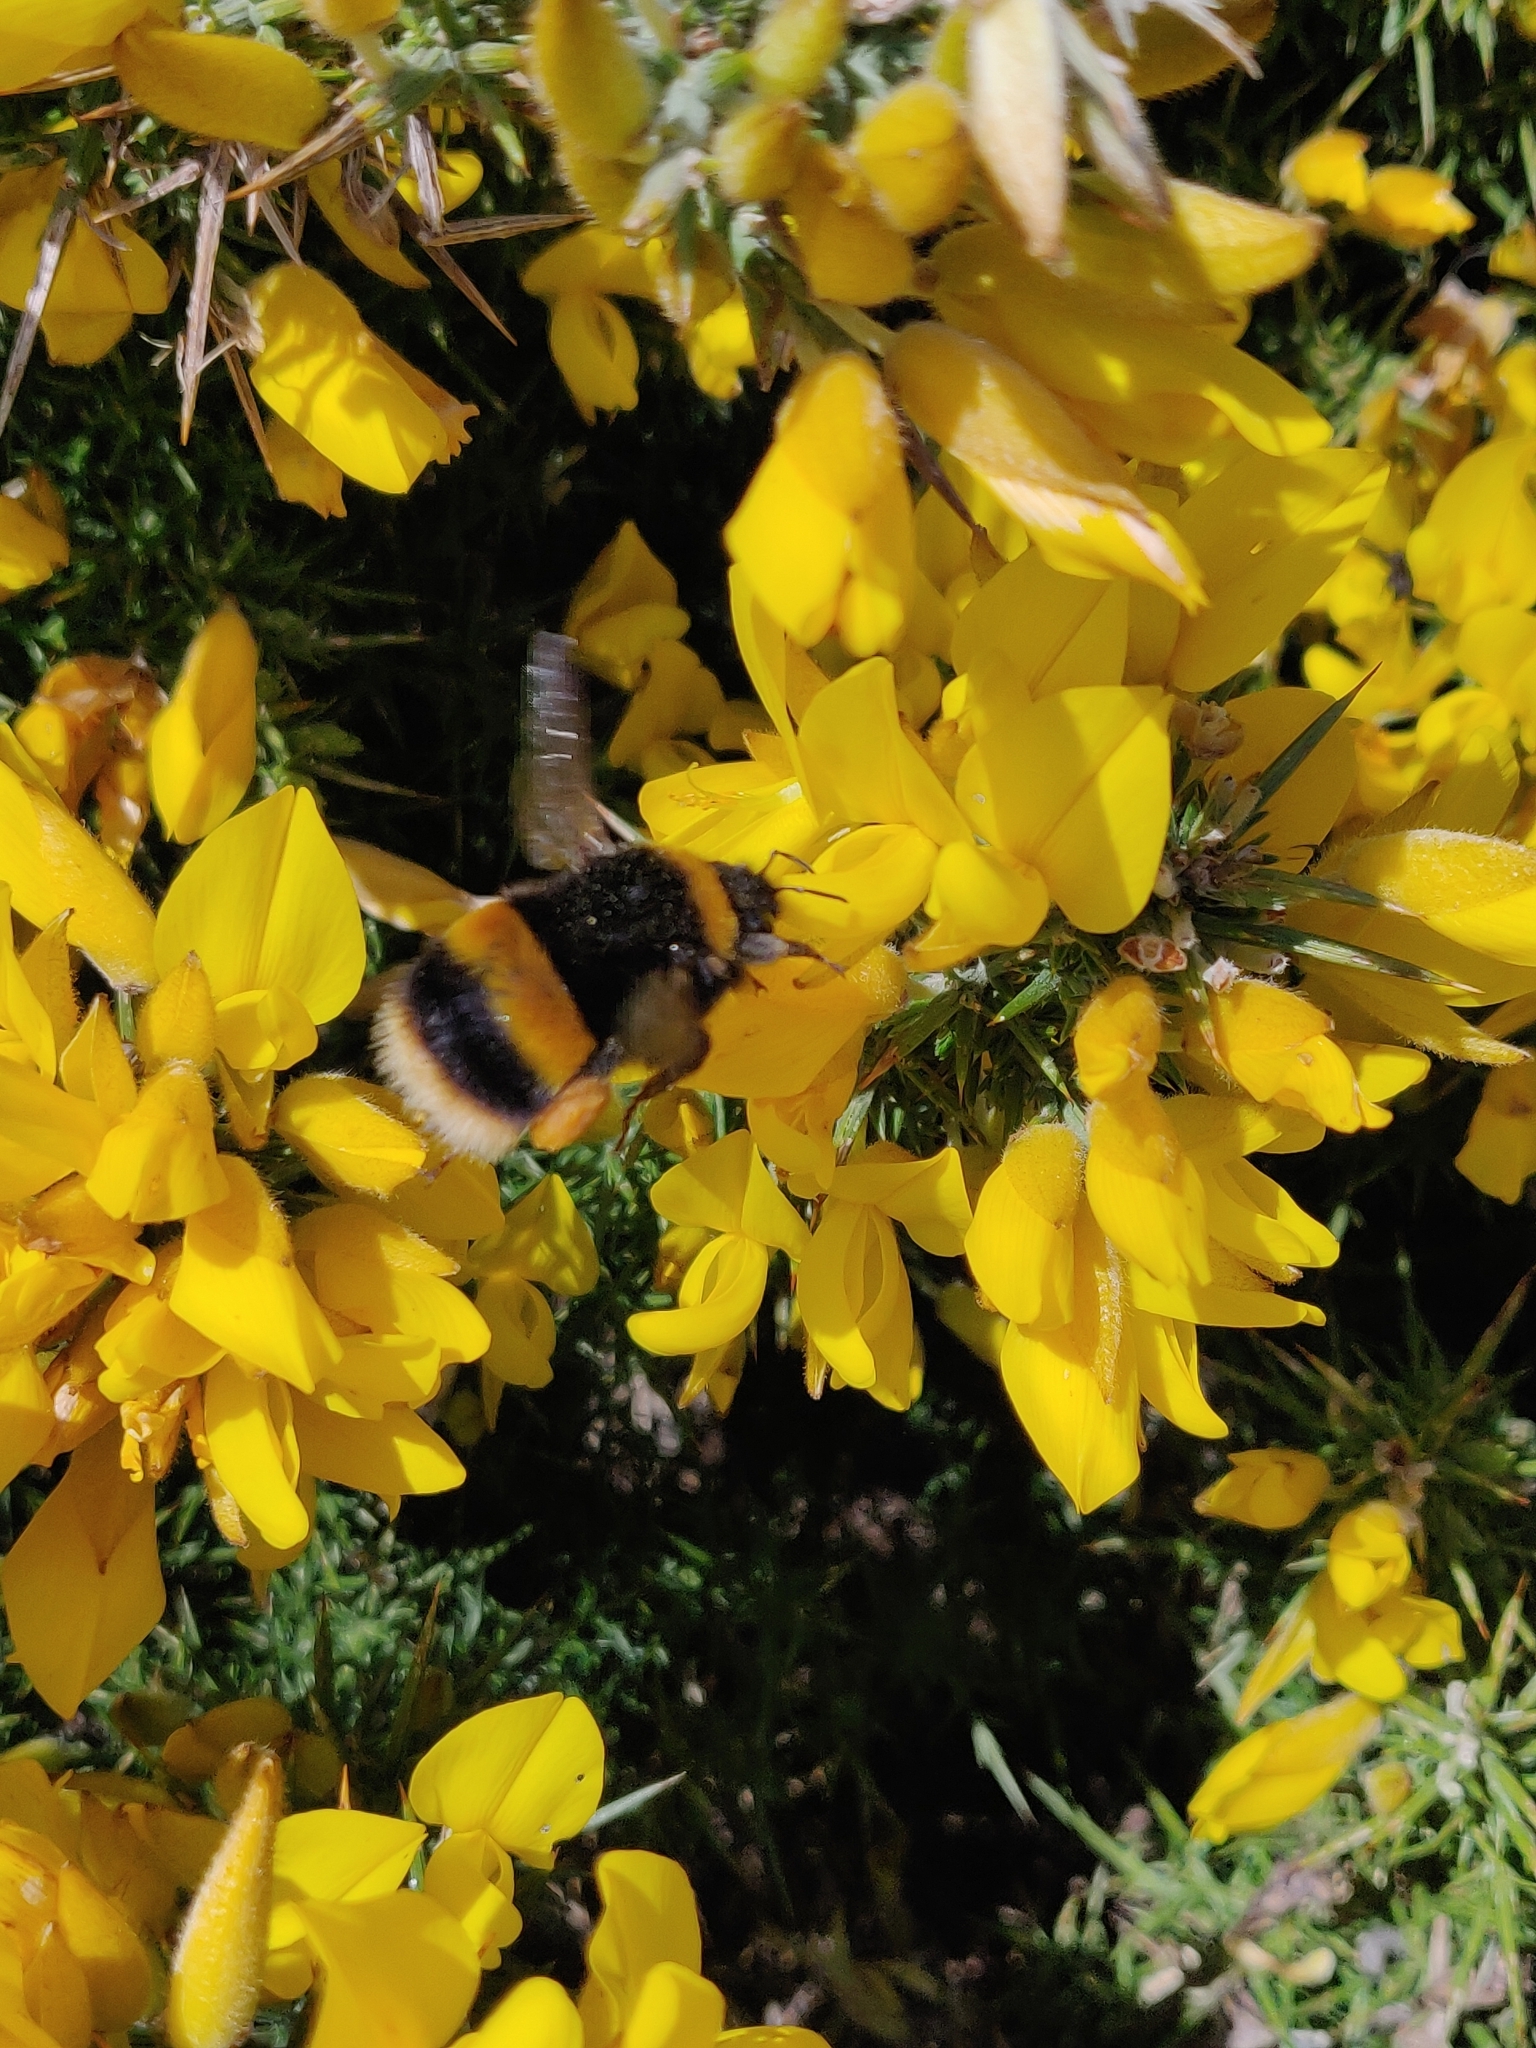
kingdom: Animalia
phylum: Arthropoda
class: Insecta
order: Hymenoptera
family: Apidae
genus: Bombus
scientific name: Bombus terrestris
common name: Buff-tailed bumblebee
